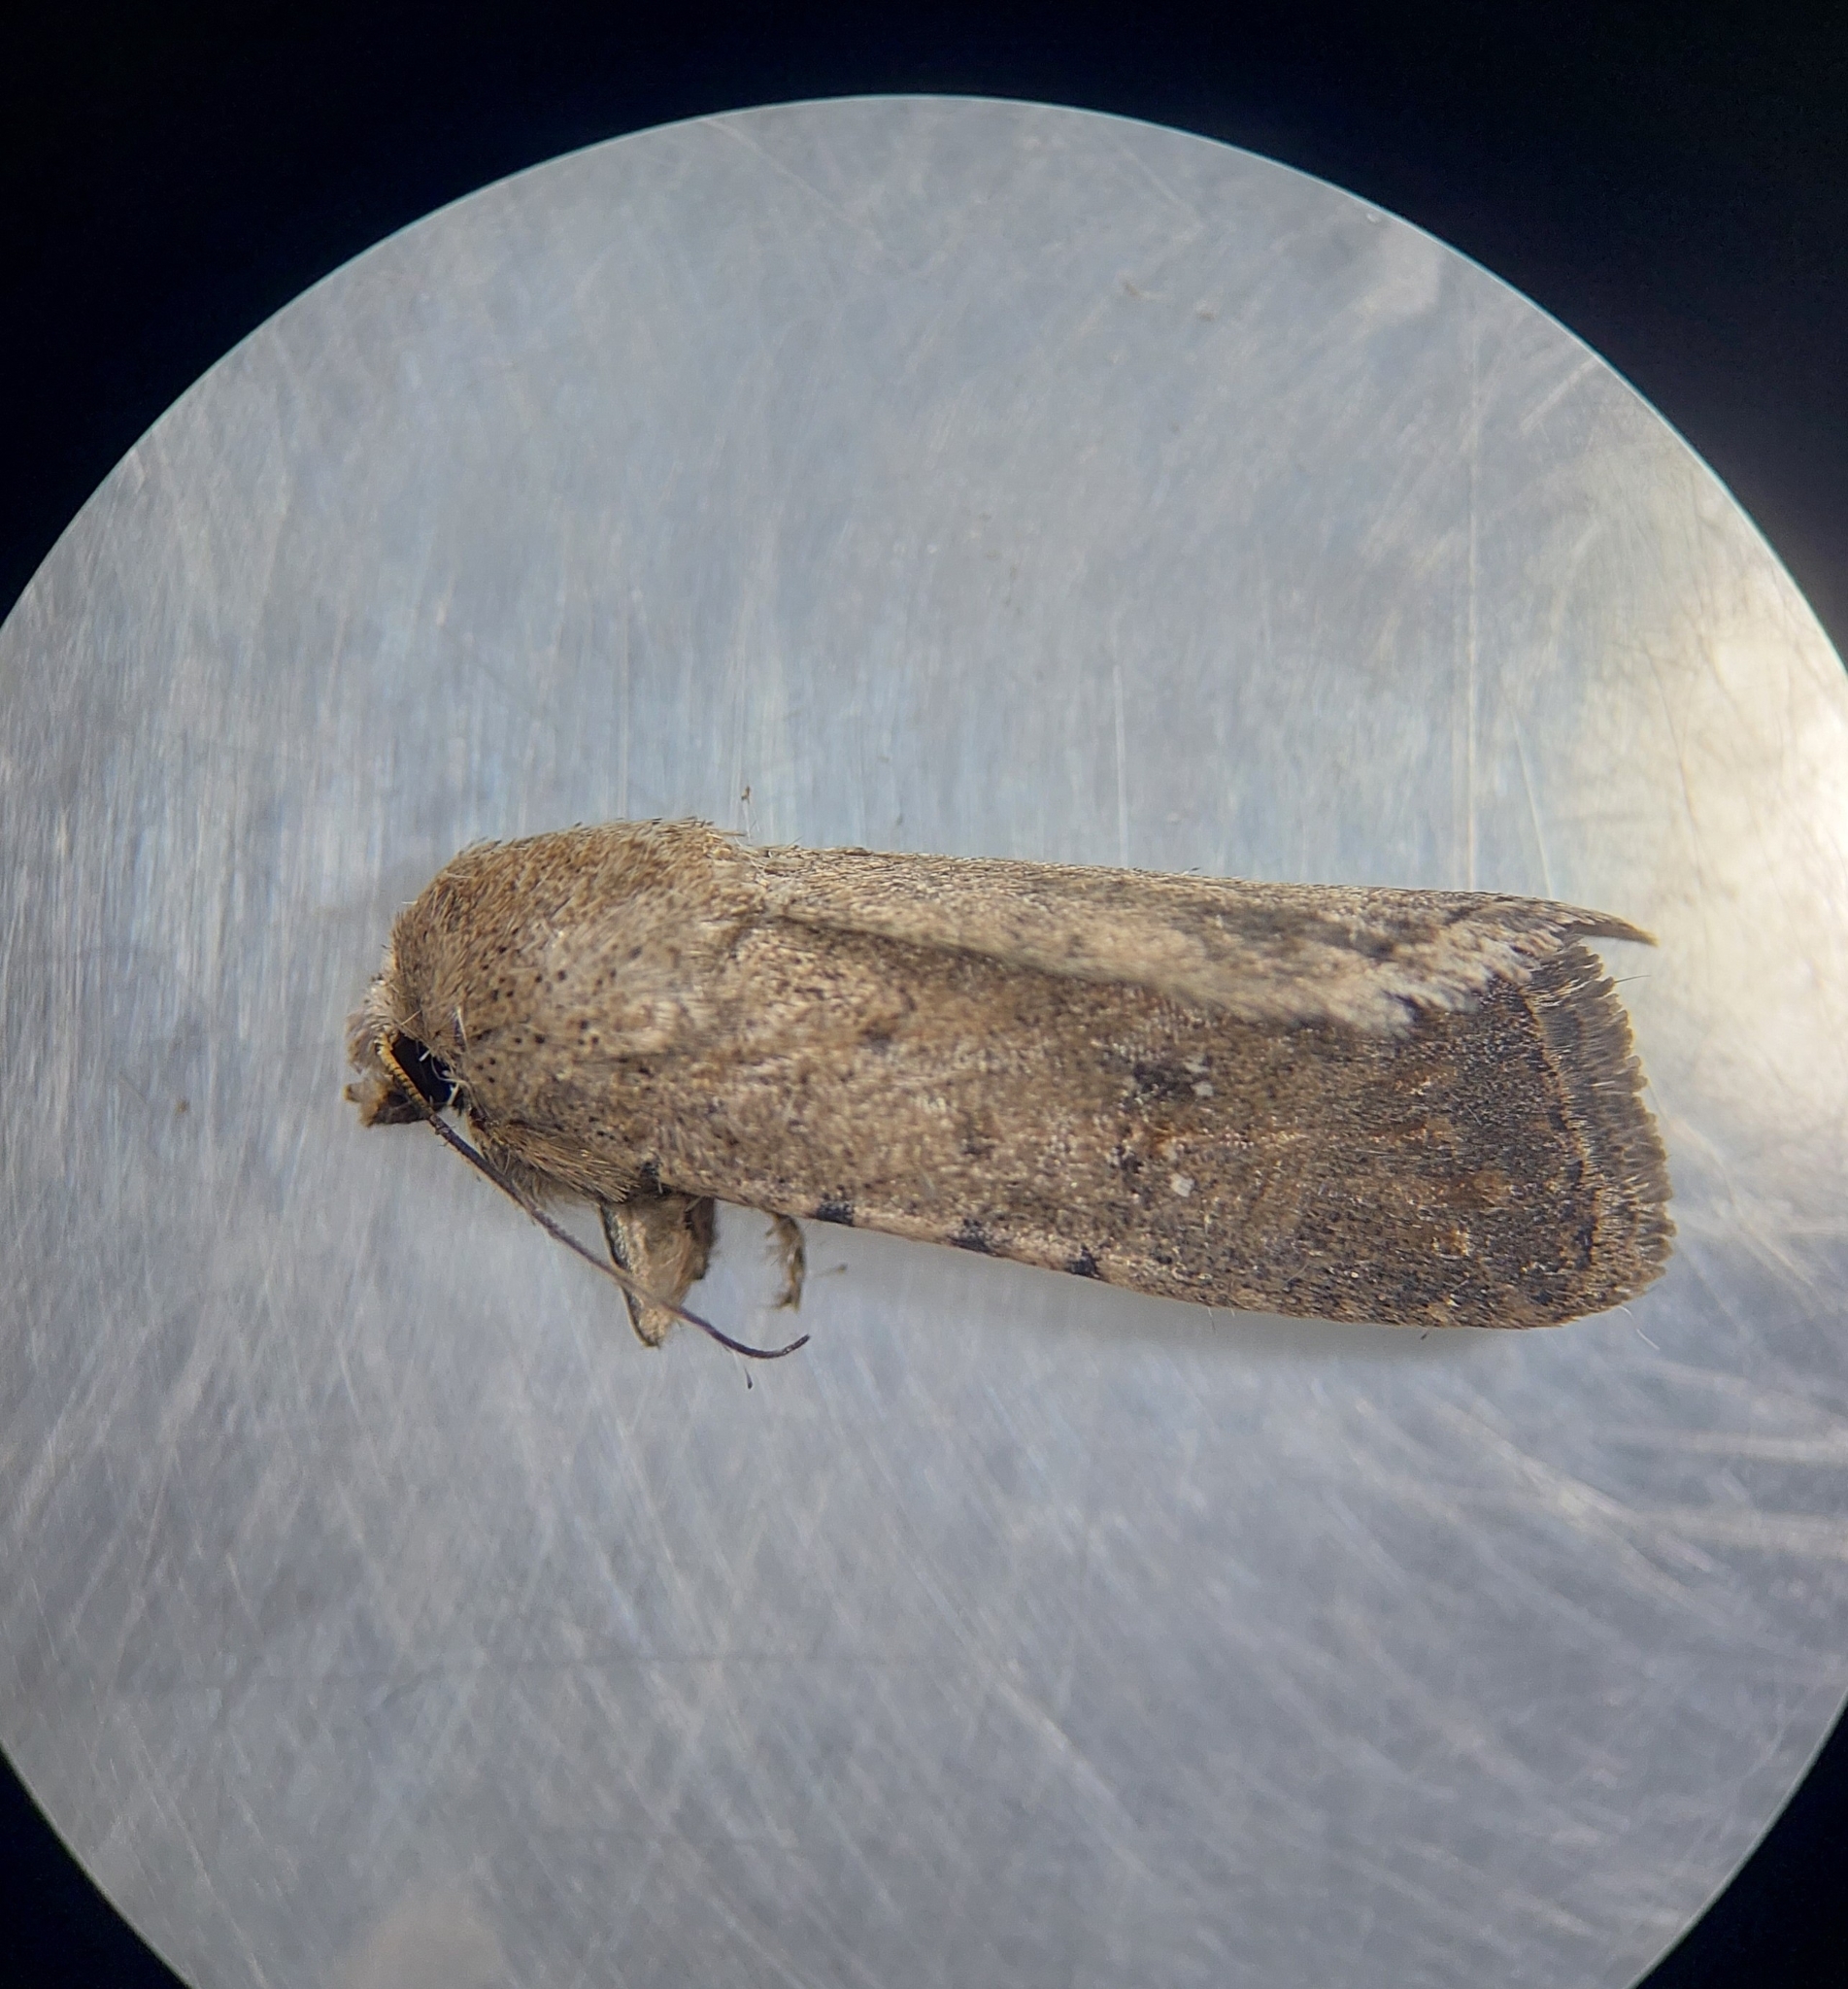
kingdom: Animalia
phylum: Arthropoda
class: Insecta
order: Lepidoptera
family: Noctuidae
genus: Caradrina
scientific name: Caradrina clavipalpis
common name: Pale mottled willow
